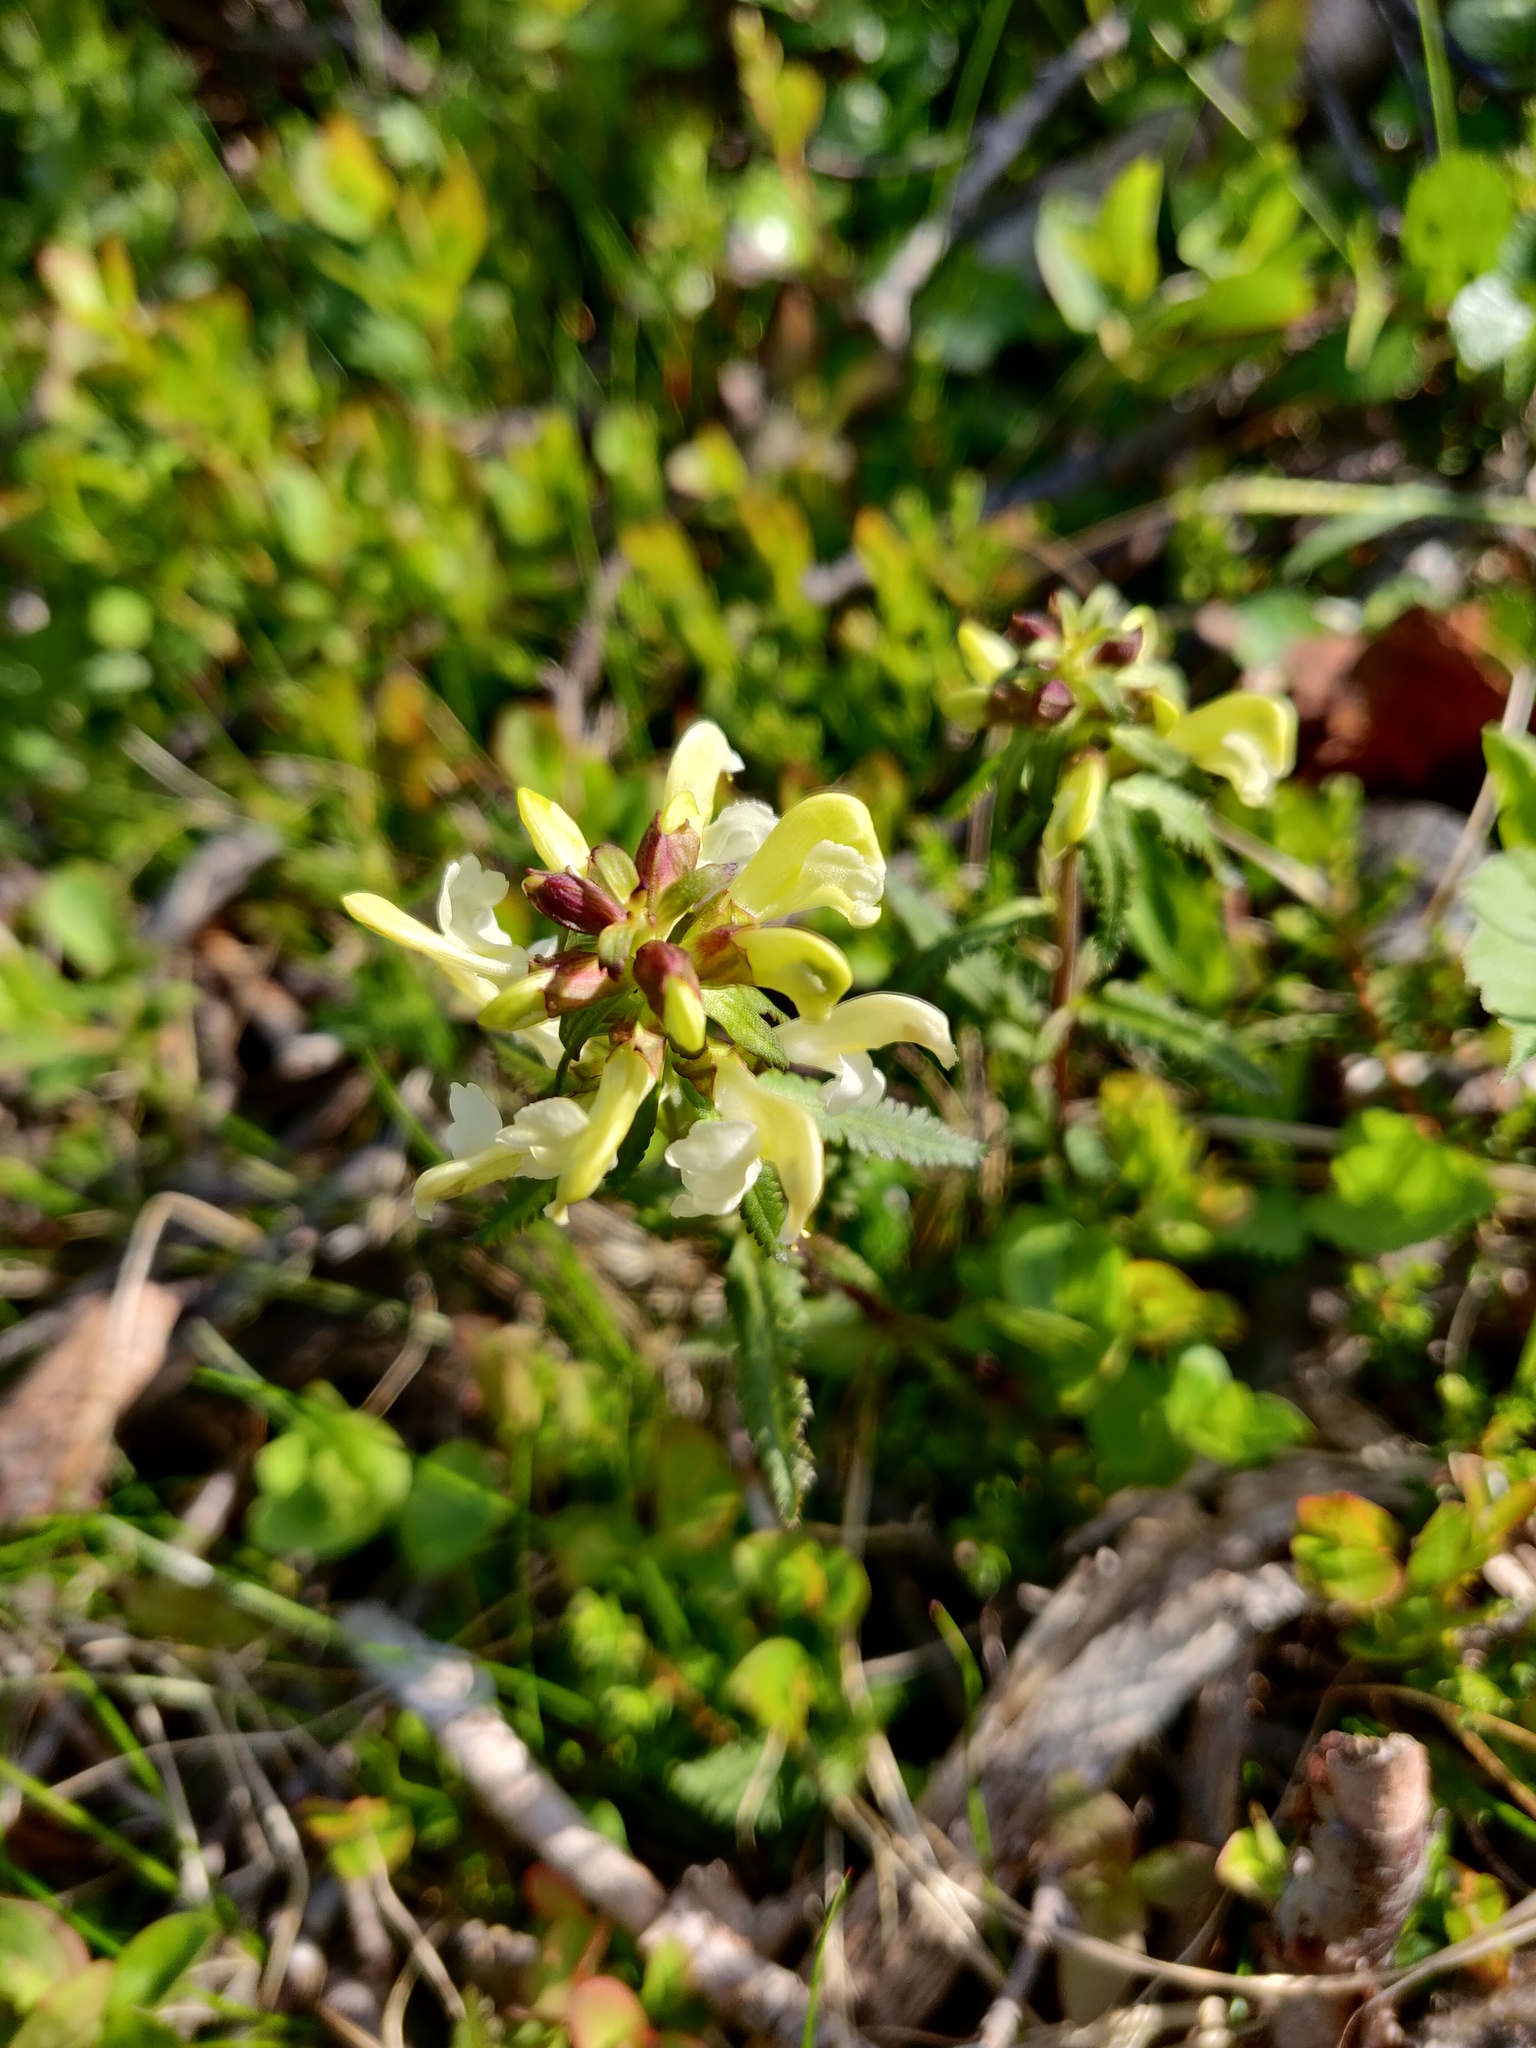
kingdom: Plantae
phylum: Tracheophyta
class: Magnoliopsida
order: Lamiales
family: Orobanchaceae
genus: Pedicularis
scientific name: Pedicularis lapponica
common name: Lapland lousewort
